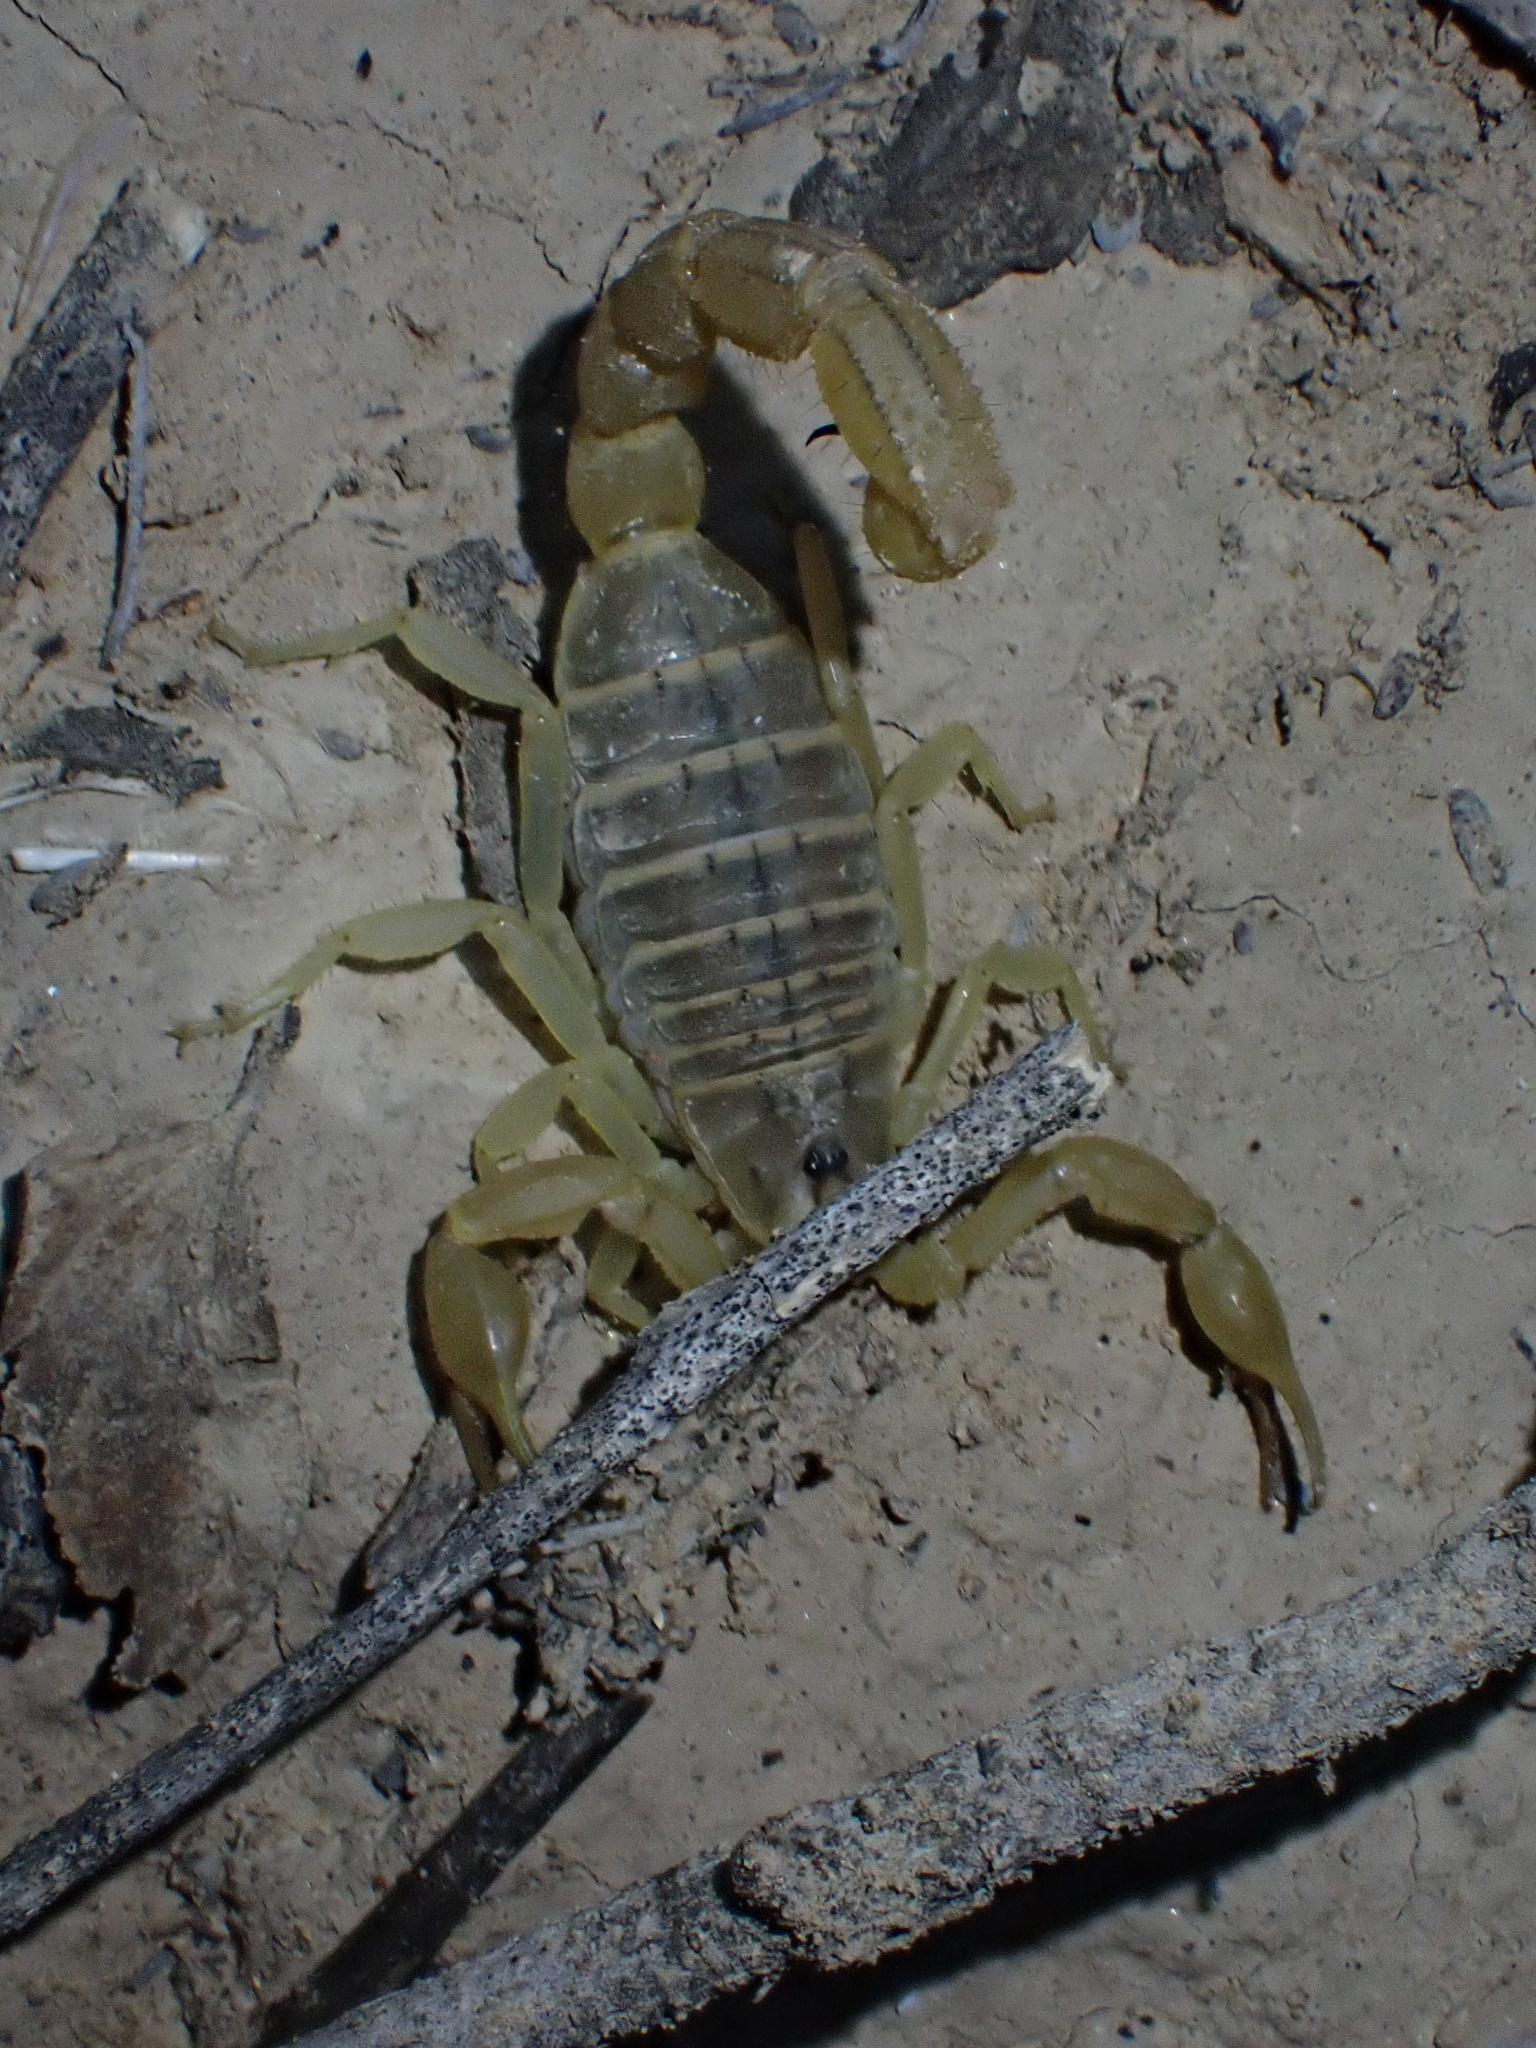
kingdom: Animalia
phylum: Arthropoda
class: Arachnida
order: Scorpiones
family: Buthidae
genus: Mesobuthus
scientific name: Mesobuthus crucittii
